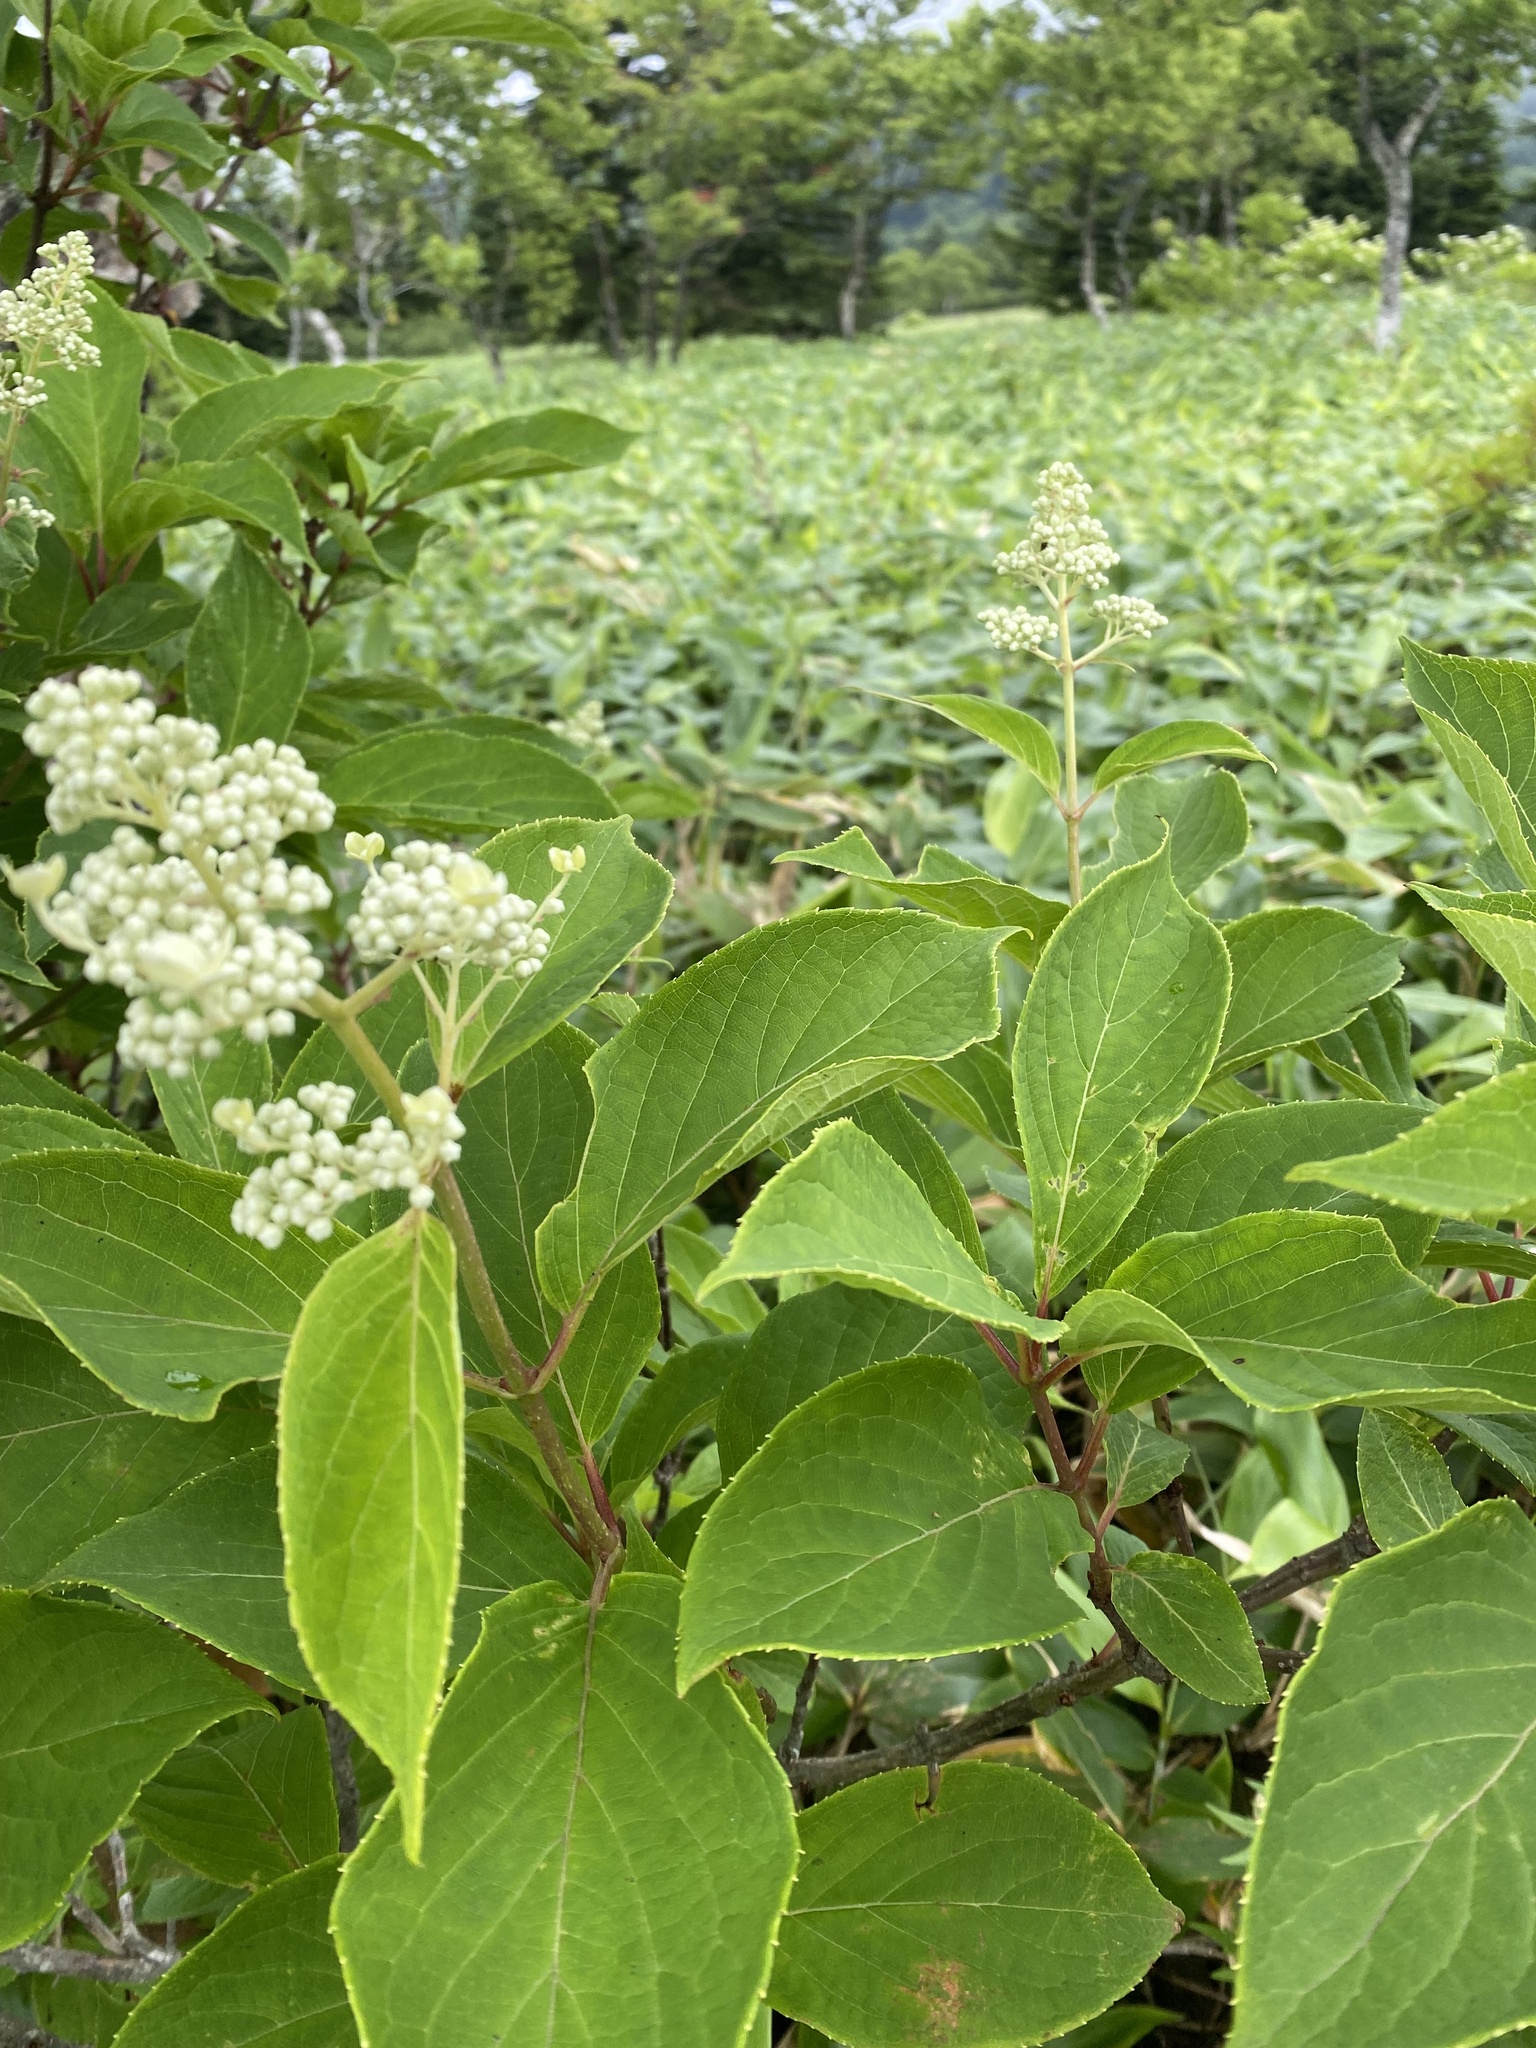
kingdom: Plantae
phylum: Tracheophyta
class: Magnoliopsida
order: Cornales
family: Hydrangeaceae
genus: Hydrangea
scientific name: Hydrangea paniculata
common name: Panicled hydrangea
